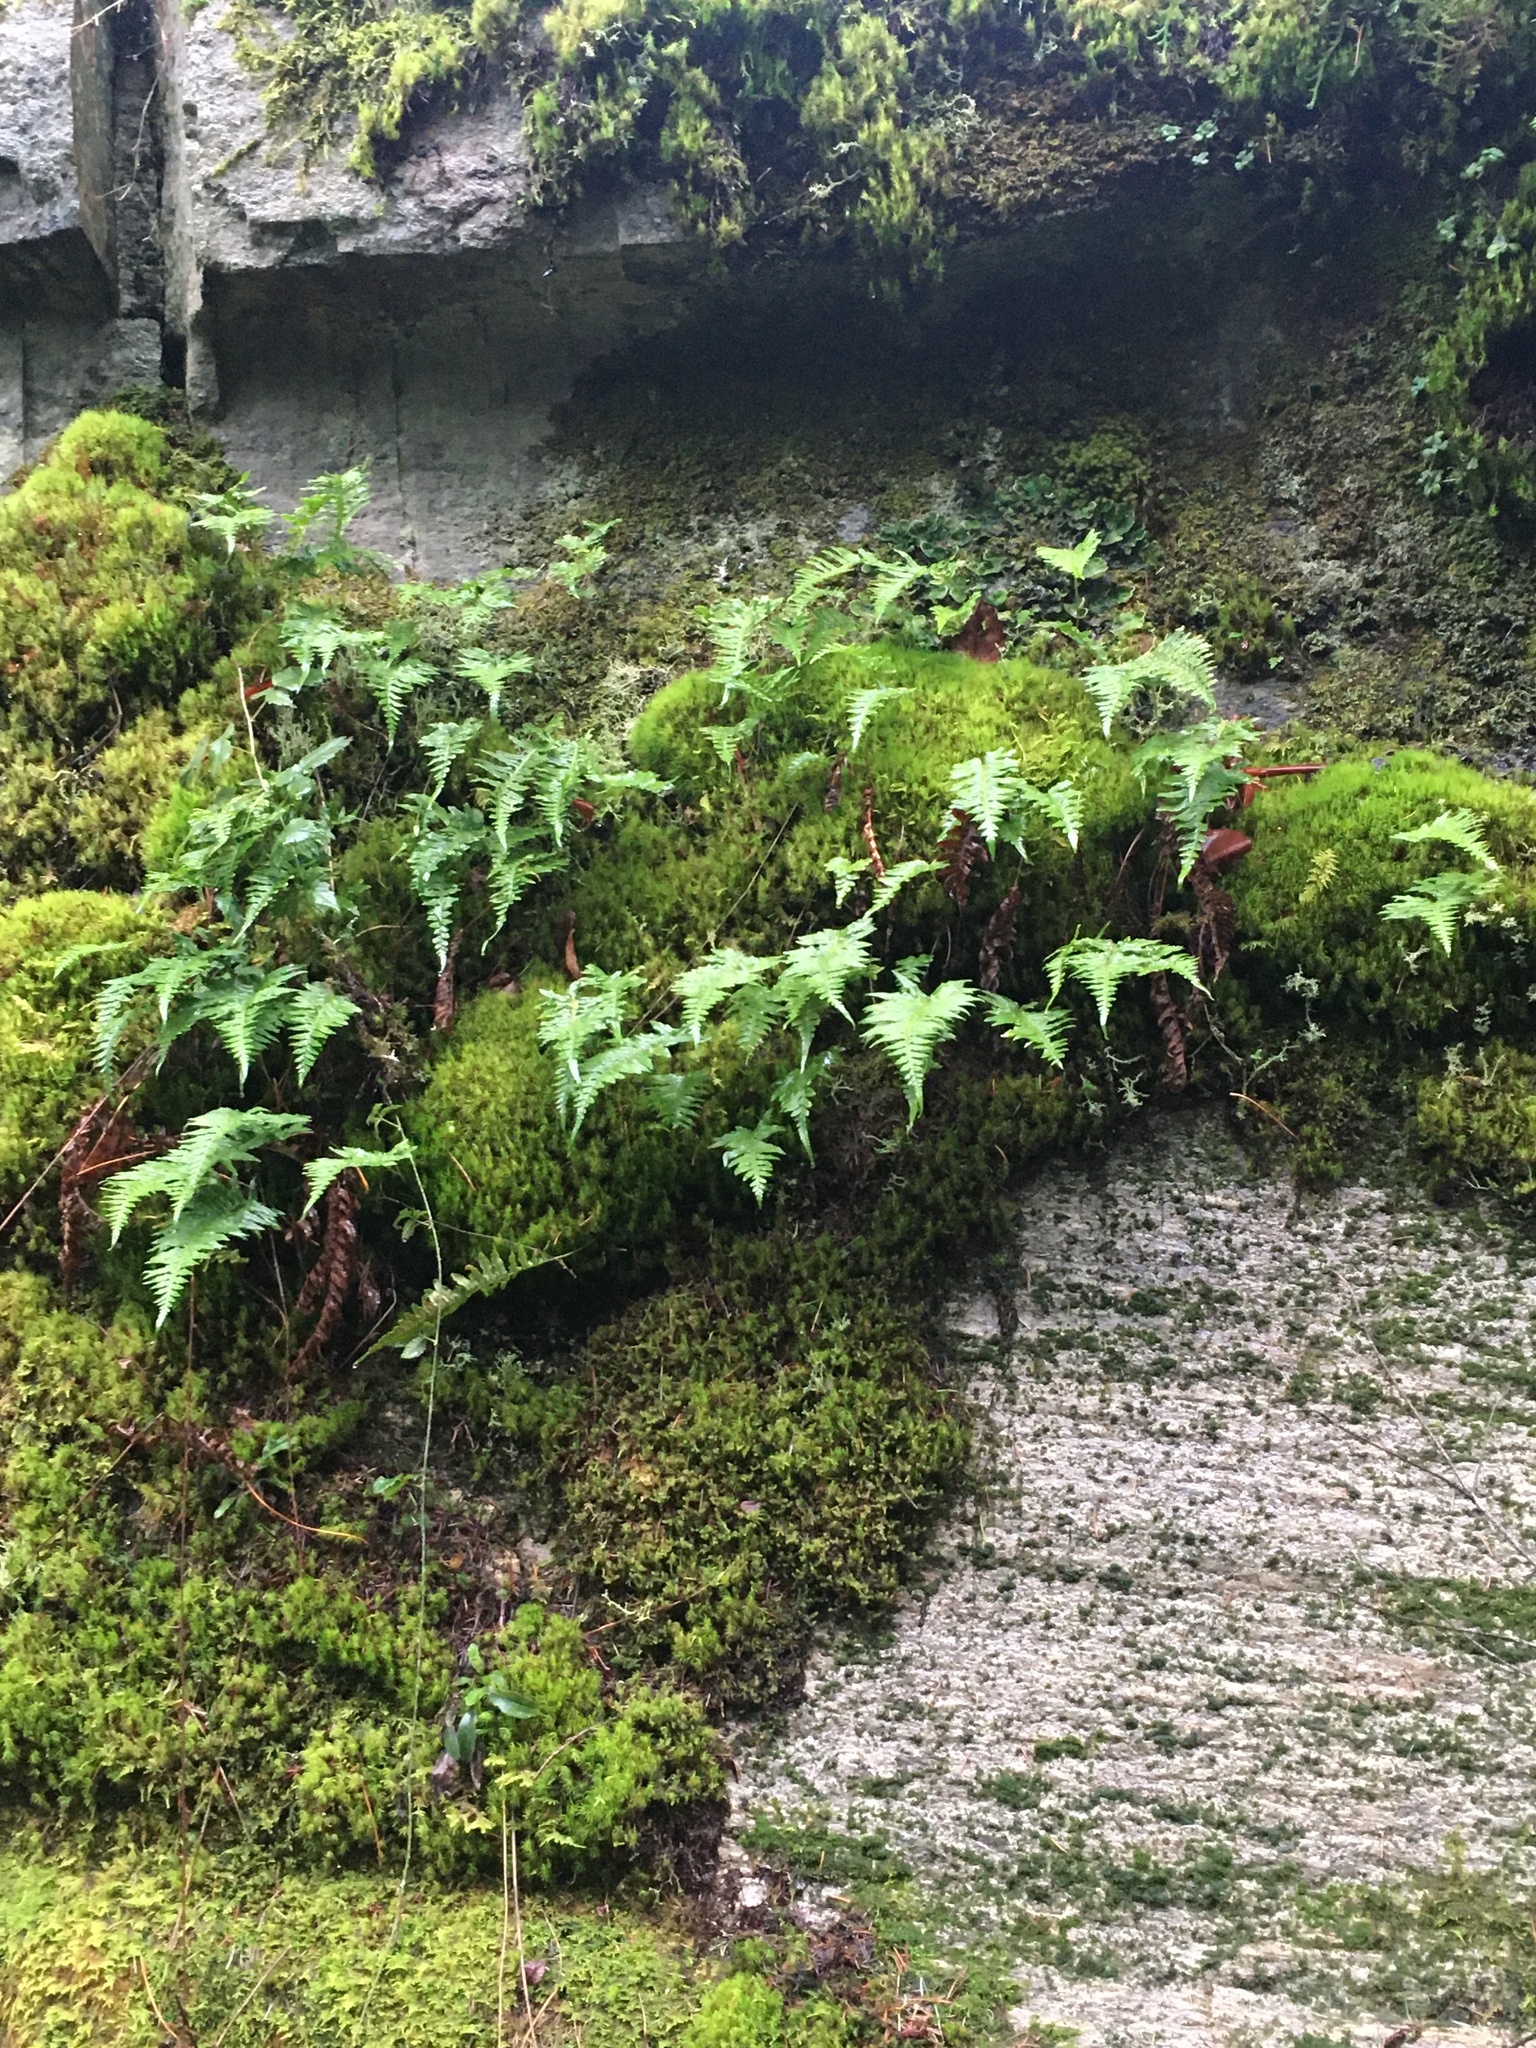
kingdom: Plantae
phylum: Tracheophyta
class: Polypodiopsida
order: Polypodiales
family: Polypodiaceae
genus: Polypodium
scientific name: Polypodium glycyrrhiza
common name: Licorice fern
